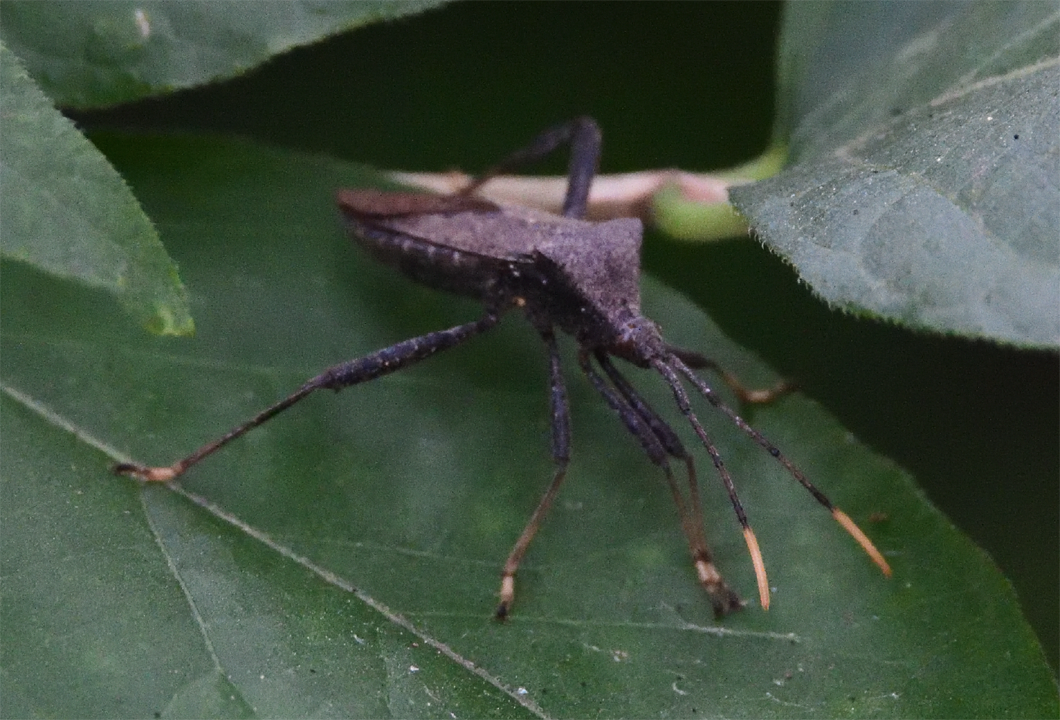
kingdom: Animalia
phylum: Arthropoda
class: Insecta
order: Hemiptera
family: Coreidae
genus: Acanthocephala
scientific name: Acanthocephala terminalis
